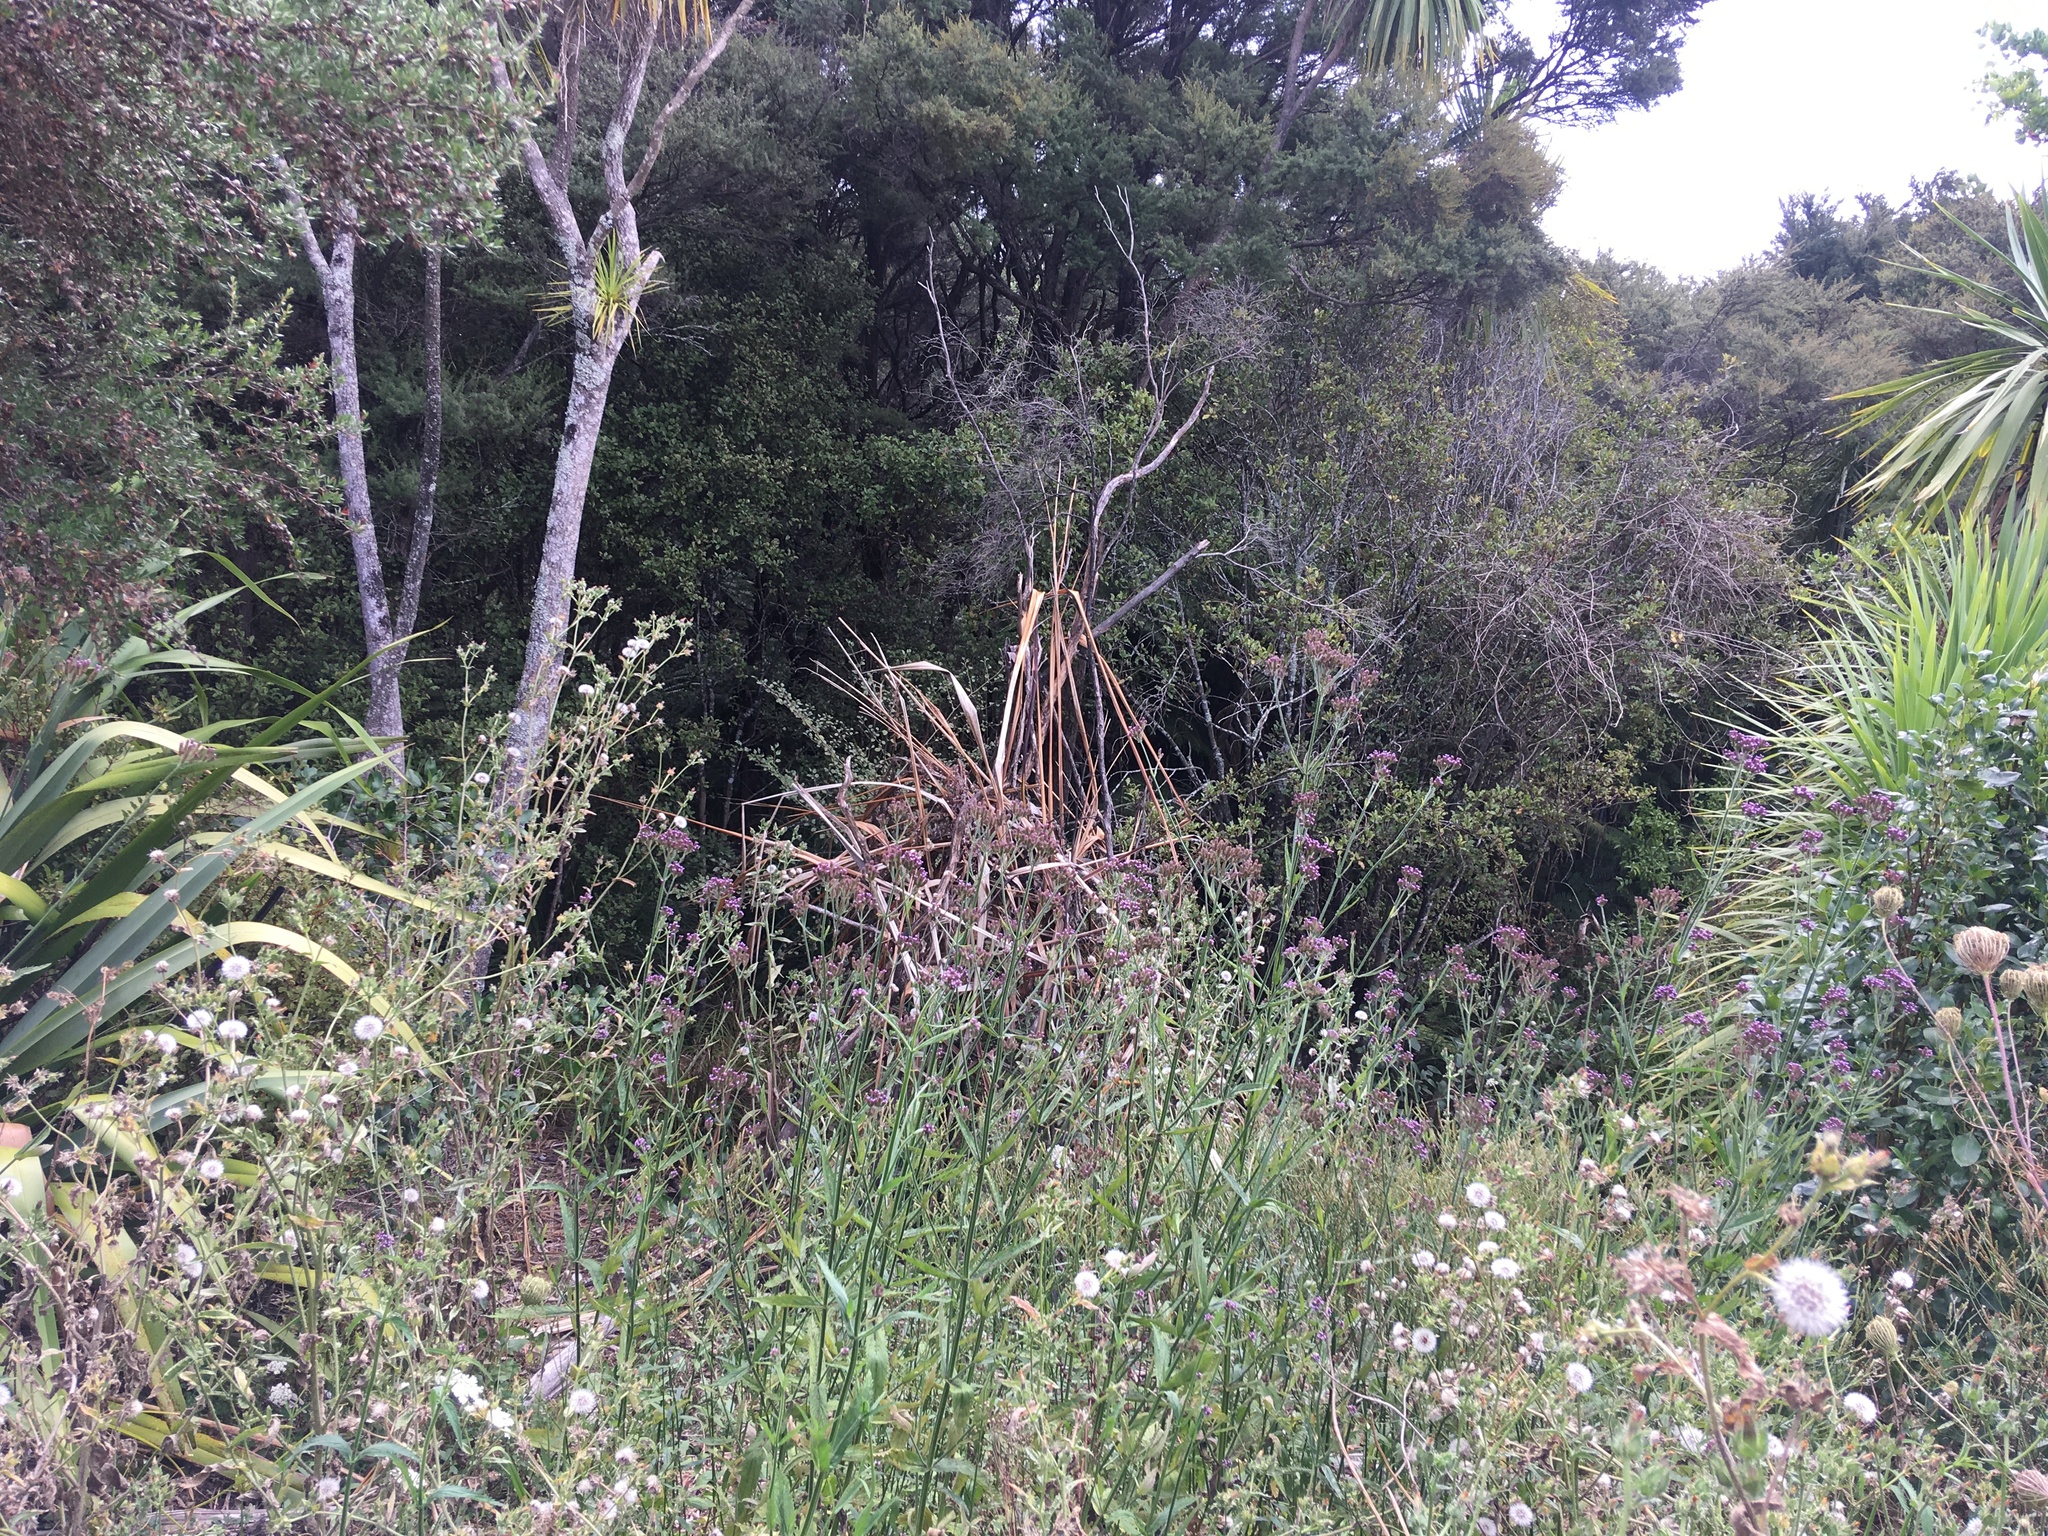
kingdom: Plantae
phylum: Tracheophyta
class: Magnoliopsida
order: Lamiales
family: Verbenaceae
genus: Verbena
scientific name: Verbena incompta
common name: Purpletop vervain
